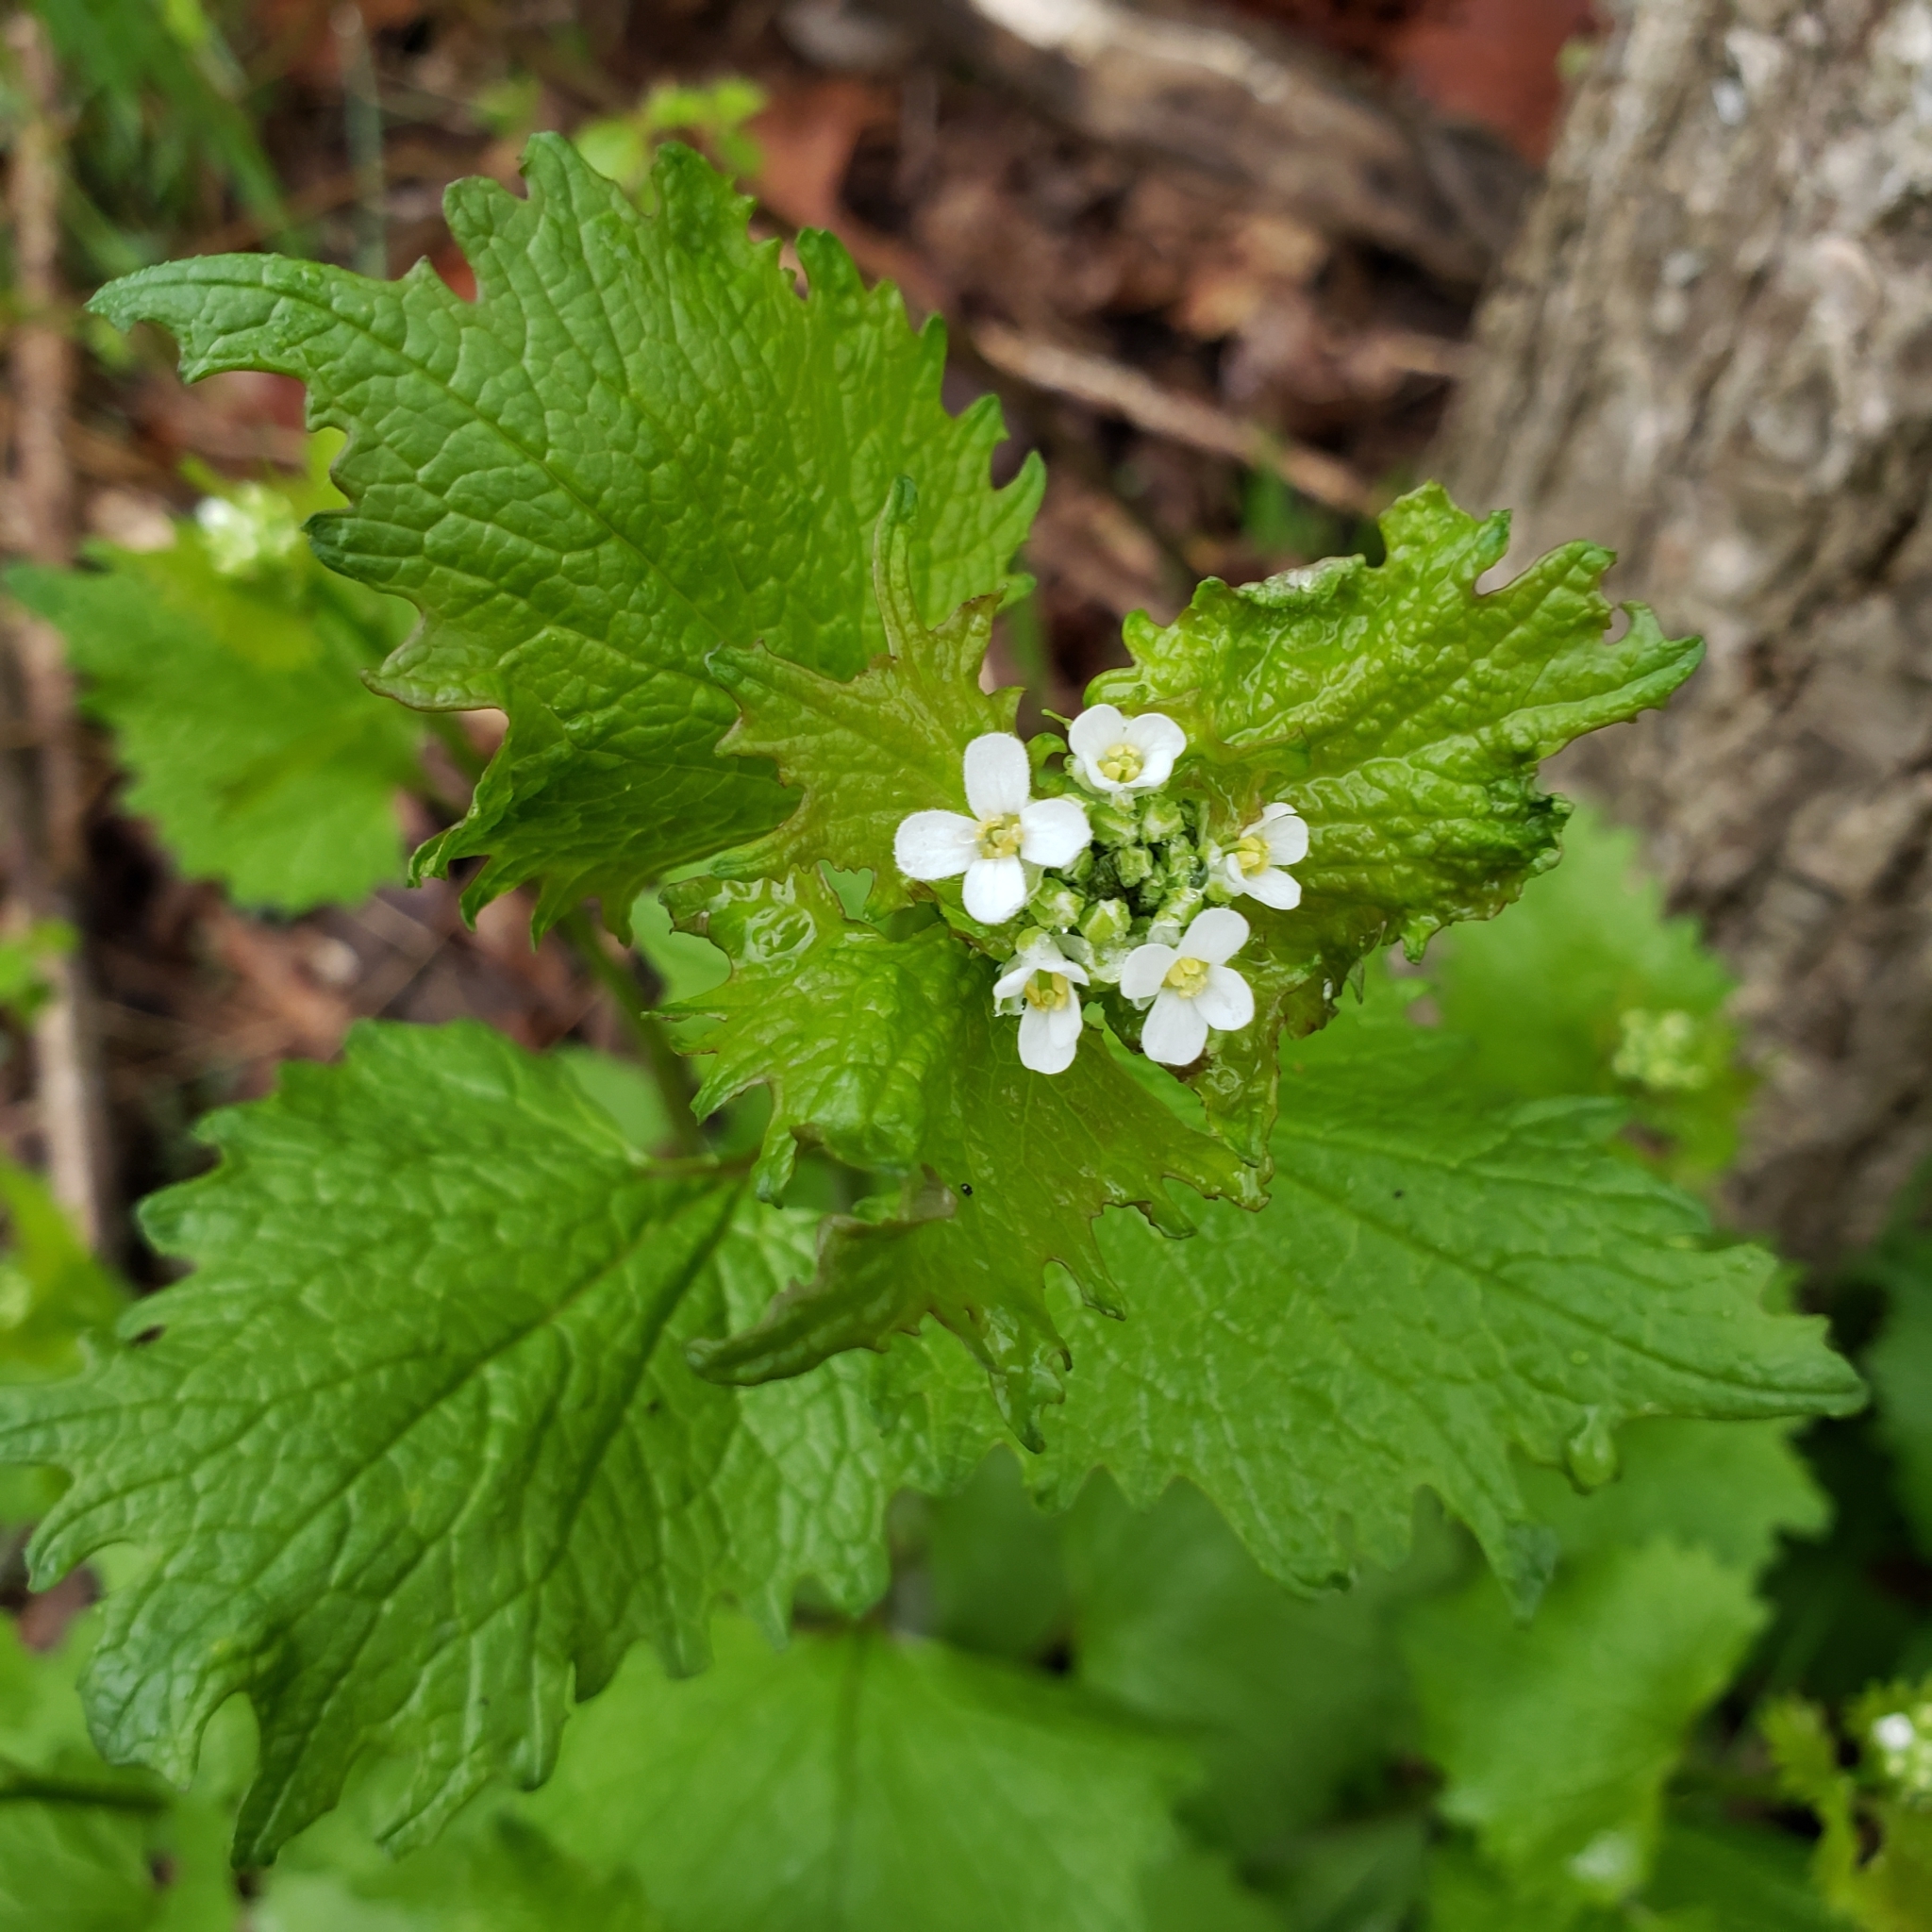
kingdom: Plantae
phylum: Tracheophyta
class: Magnoliopsida
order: Brassicales
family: Brassicaceae
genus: Alliaria
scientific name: Alliaria petiolata
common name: Garlic mustard
